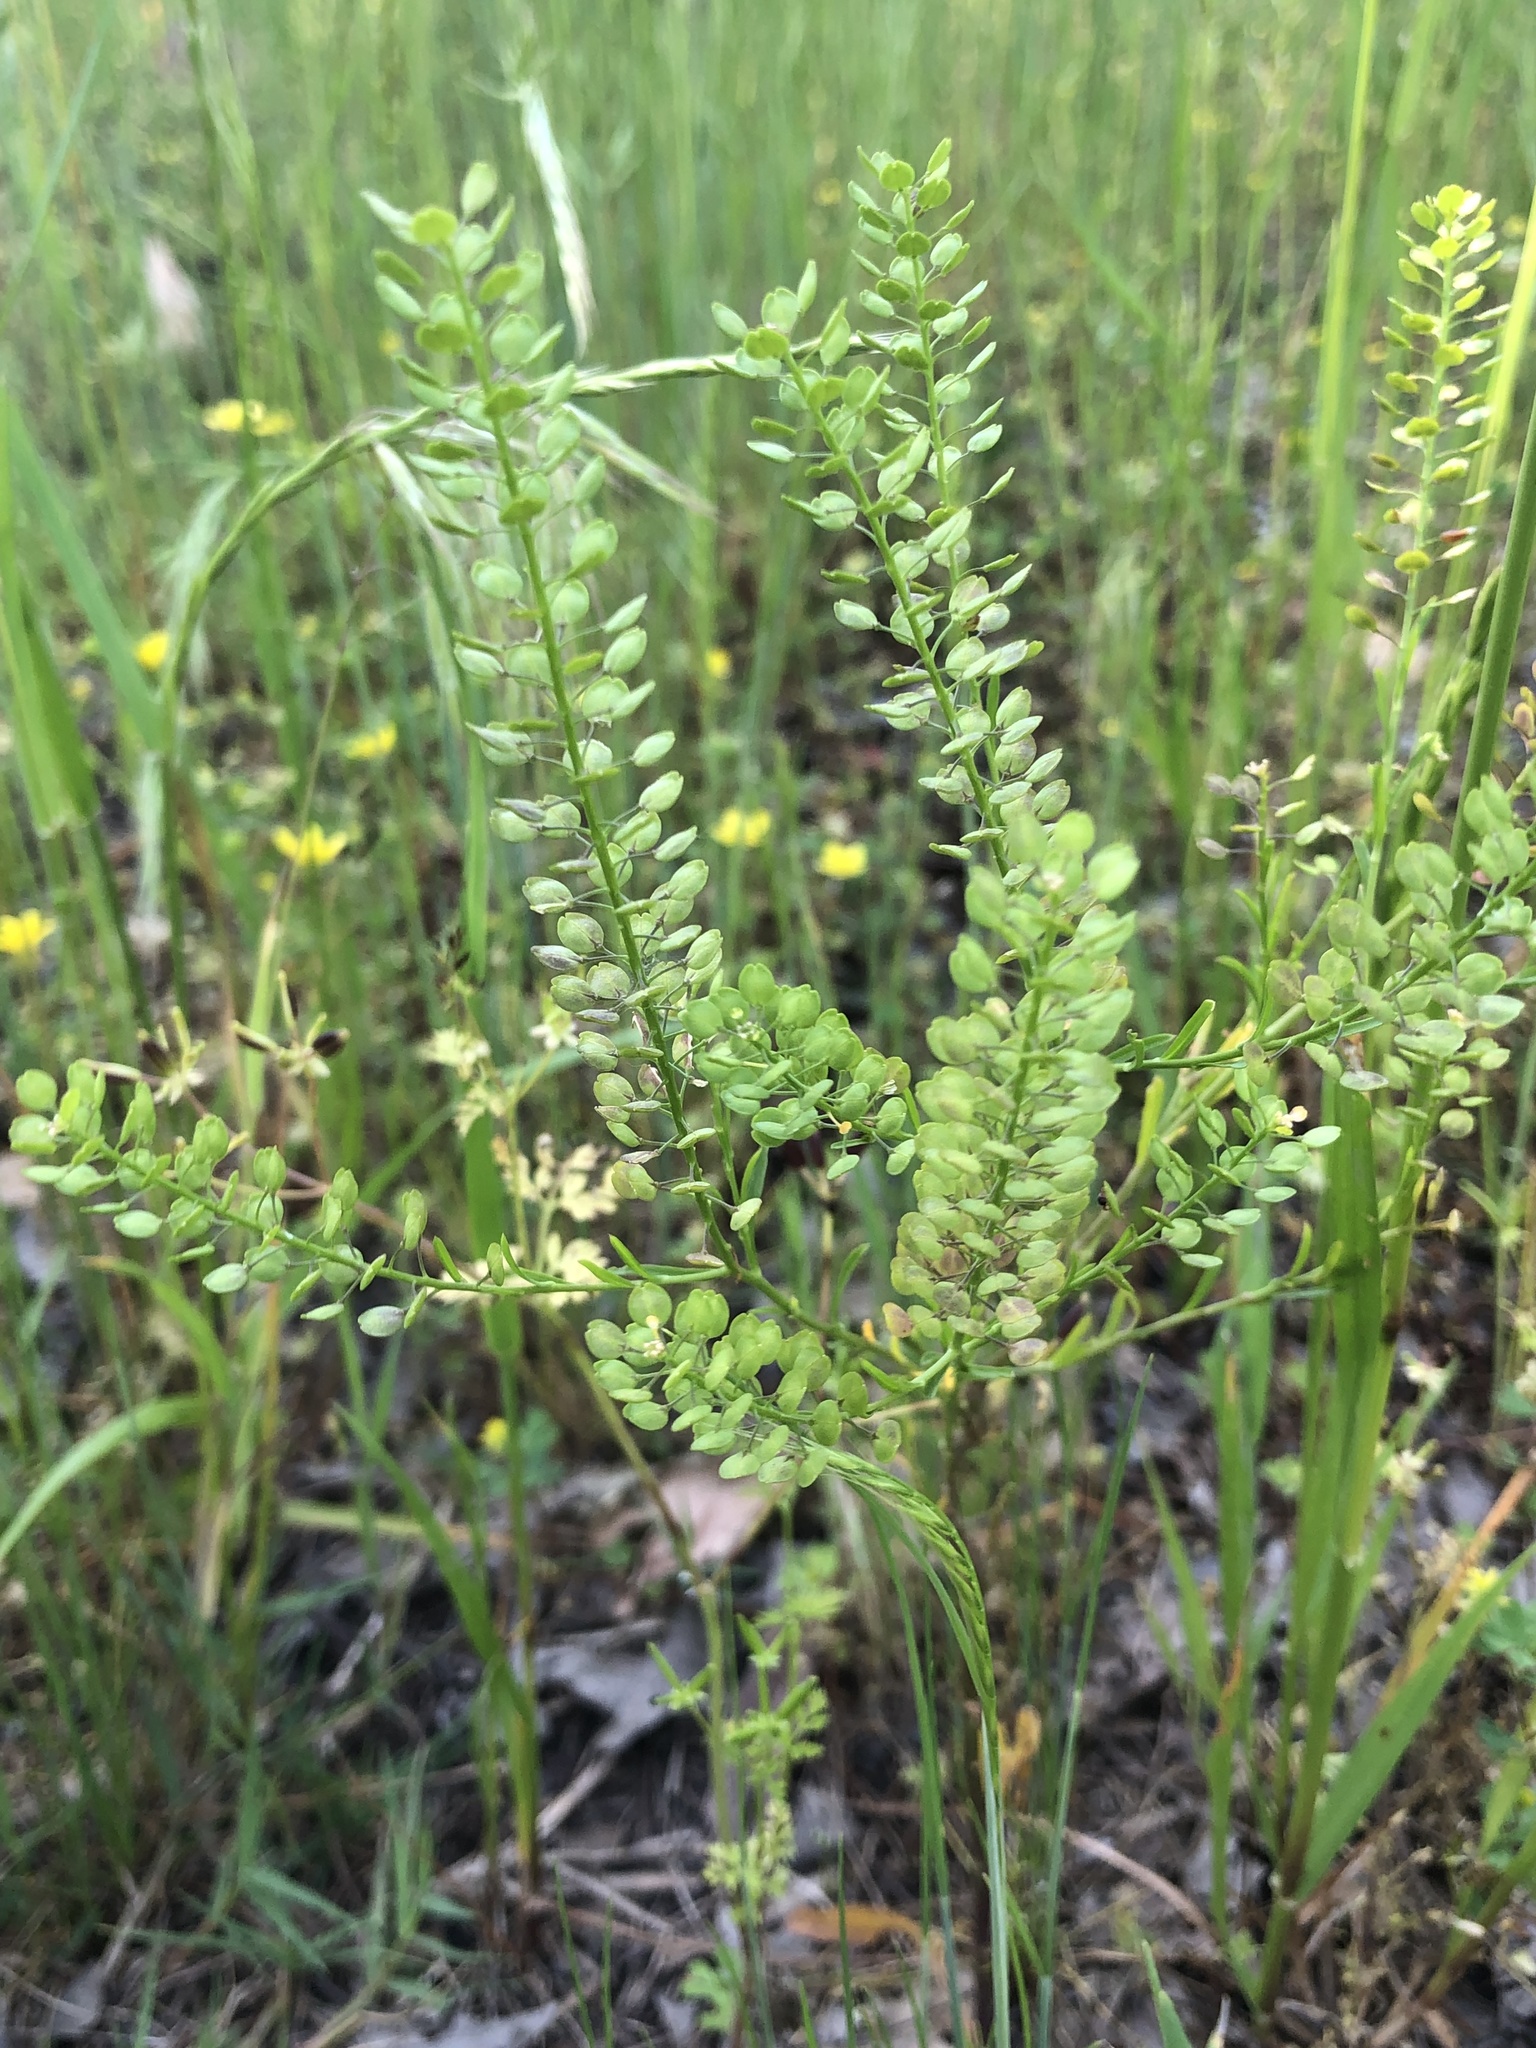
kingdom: Plantae
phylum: Tracheophyta
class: Magnoliopsida
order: Brassicales
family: Brassicaceae
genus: Lepidium
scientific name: Lepidium virginicum
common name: Least pepperwort
